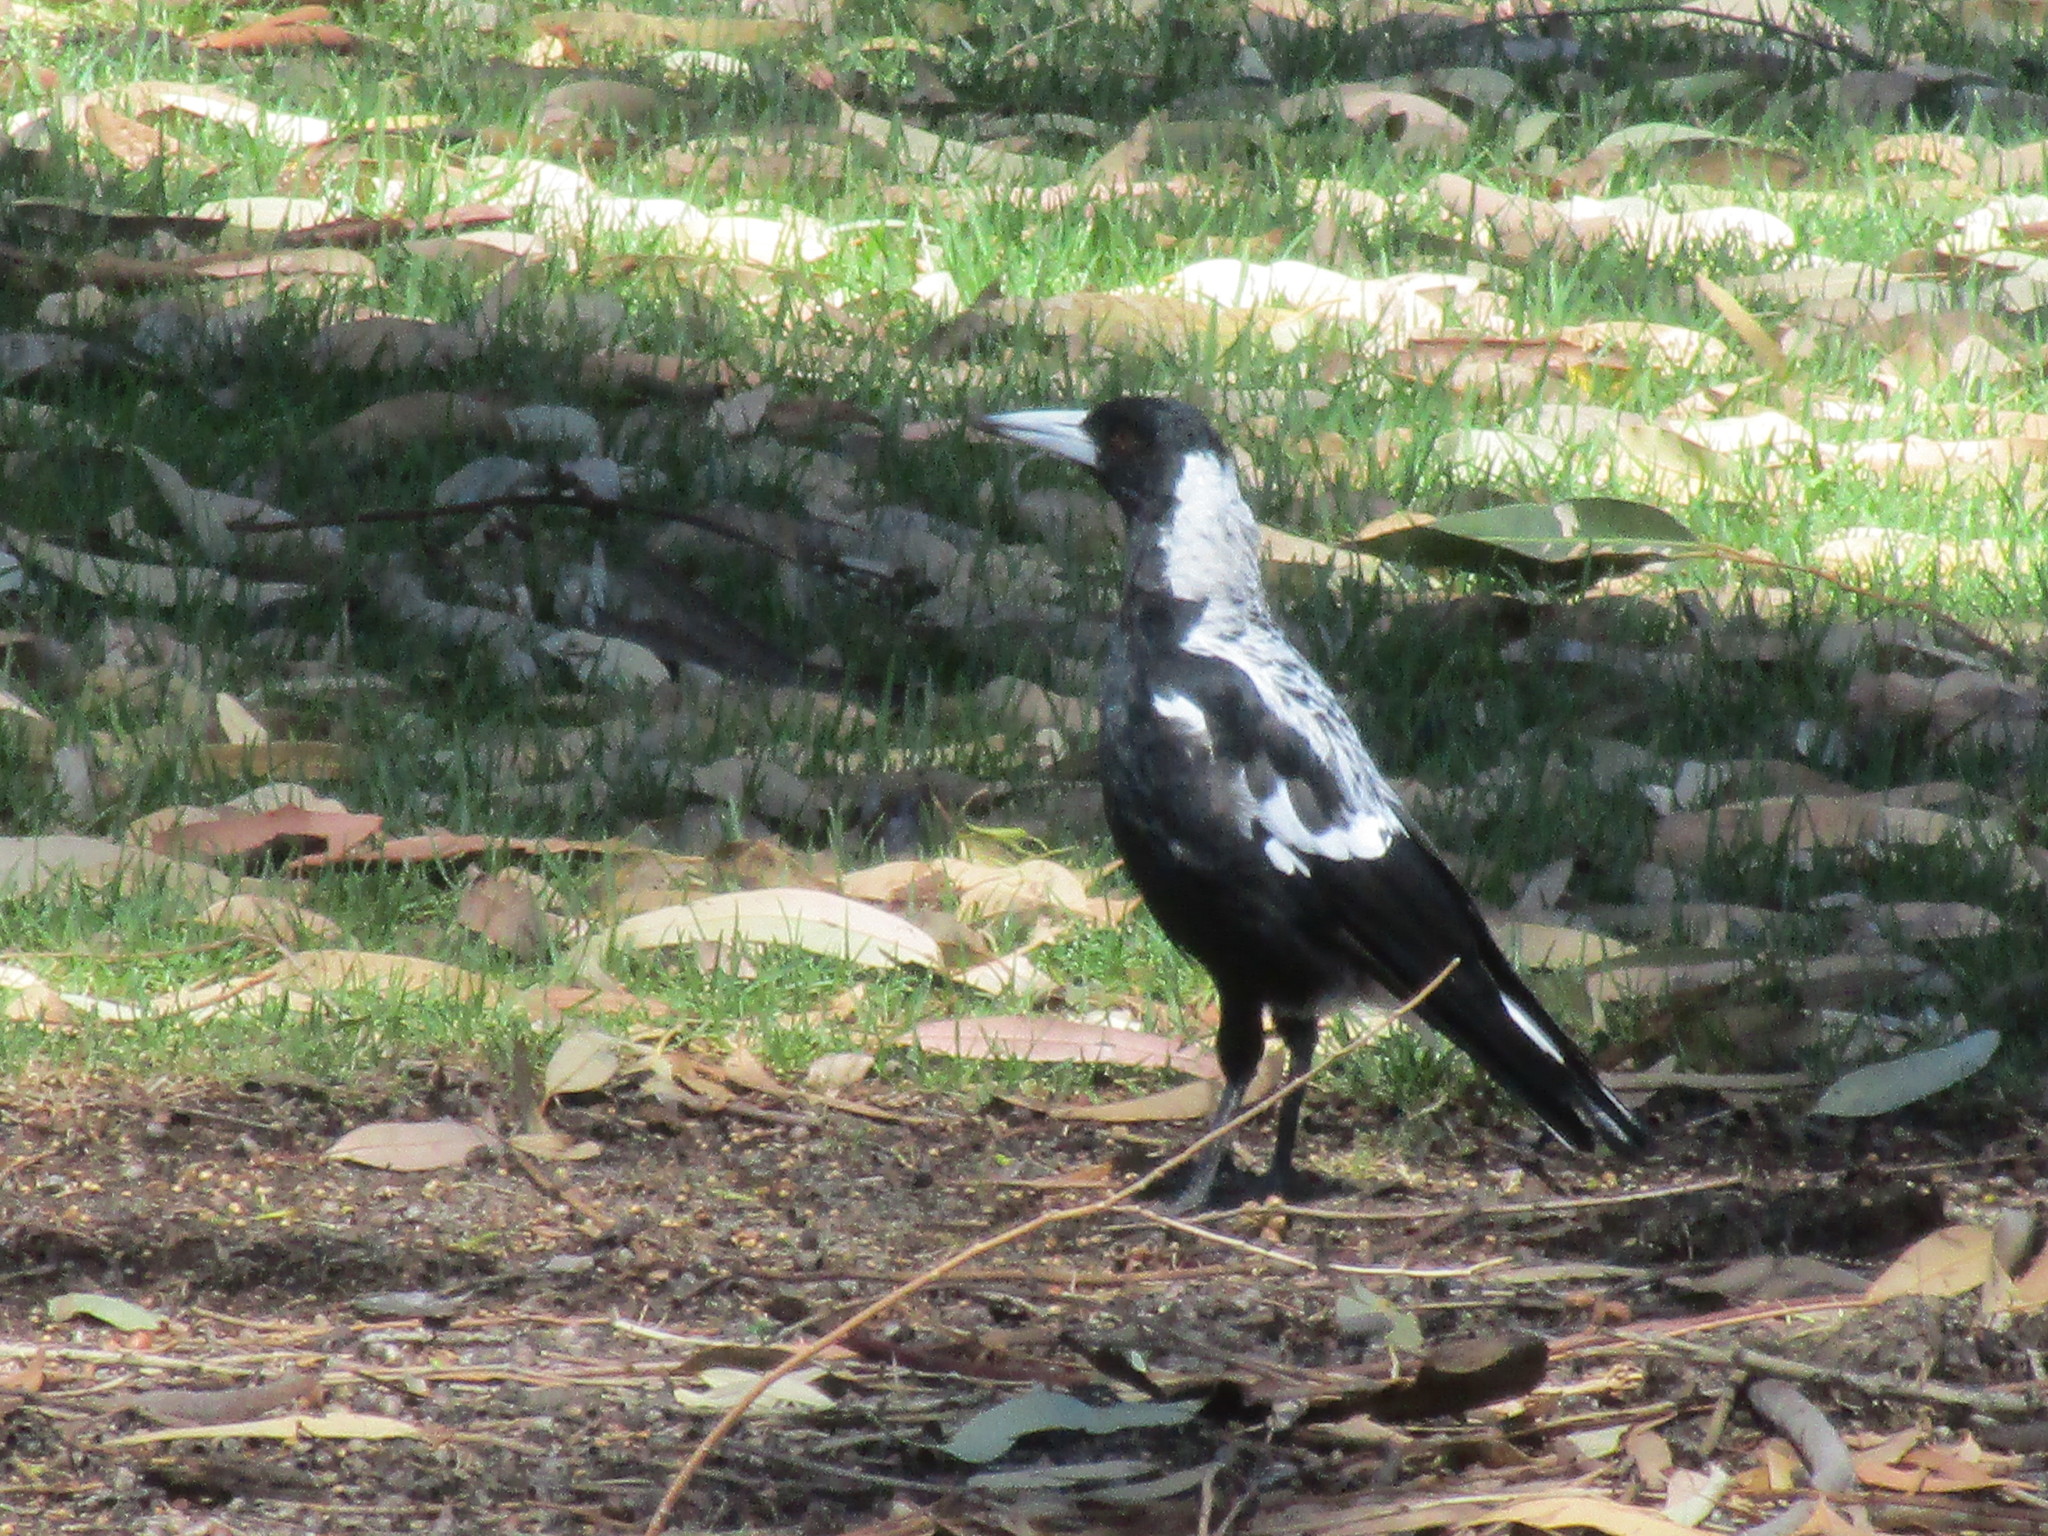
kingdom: Animalia
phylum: Chordata
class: Aves
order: Passeriformes
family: Cracticidae
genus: Gymnorhina
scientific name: Gymnorhina tibicen
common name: Australian magpie
